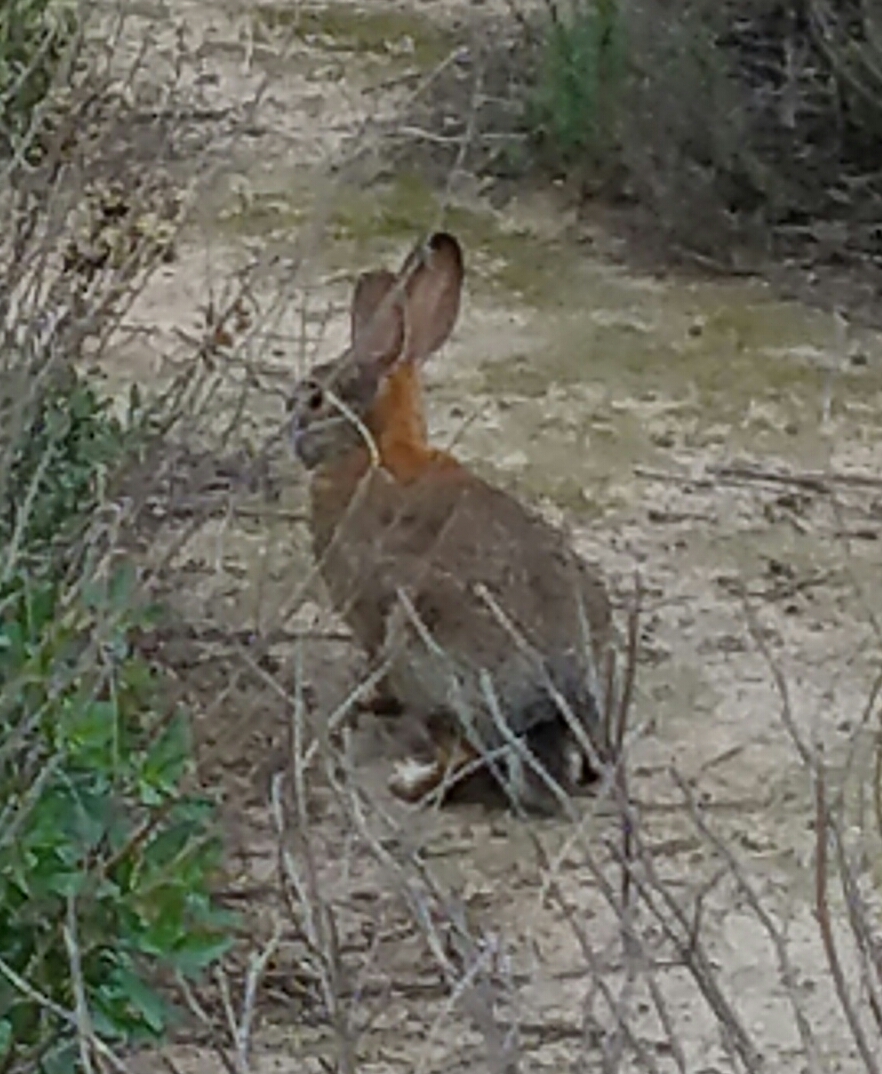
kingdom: Animalia
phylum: Chordata
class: Mammalia
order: Lagomorpha
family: Leporidae
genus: Sylvilagus
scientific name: Sylvilagus audubonii
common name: Desert cottontail
